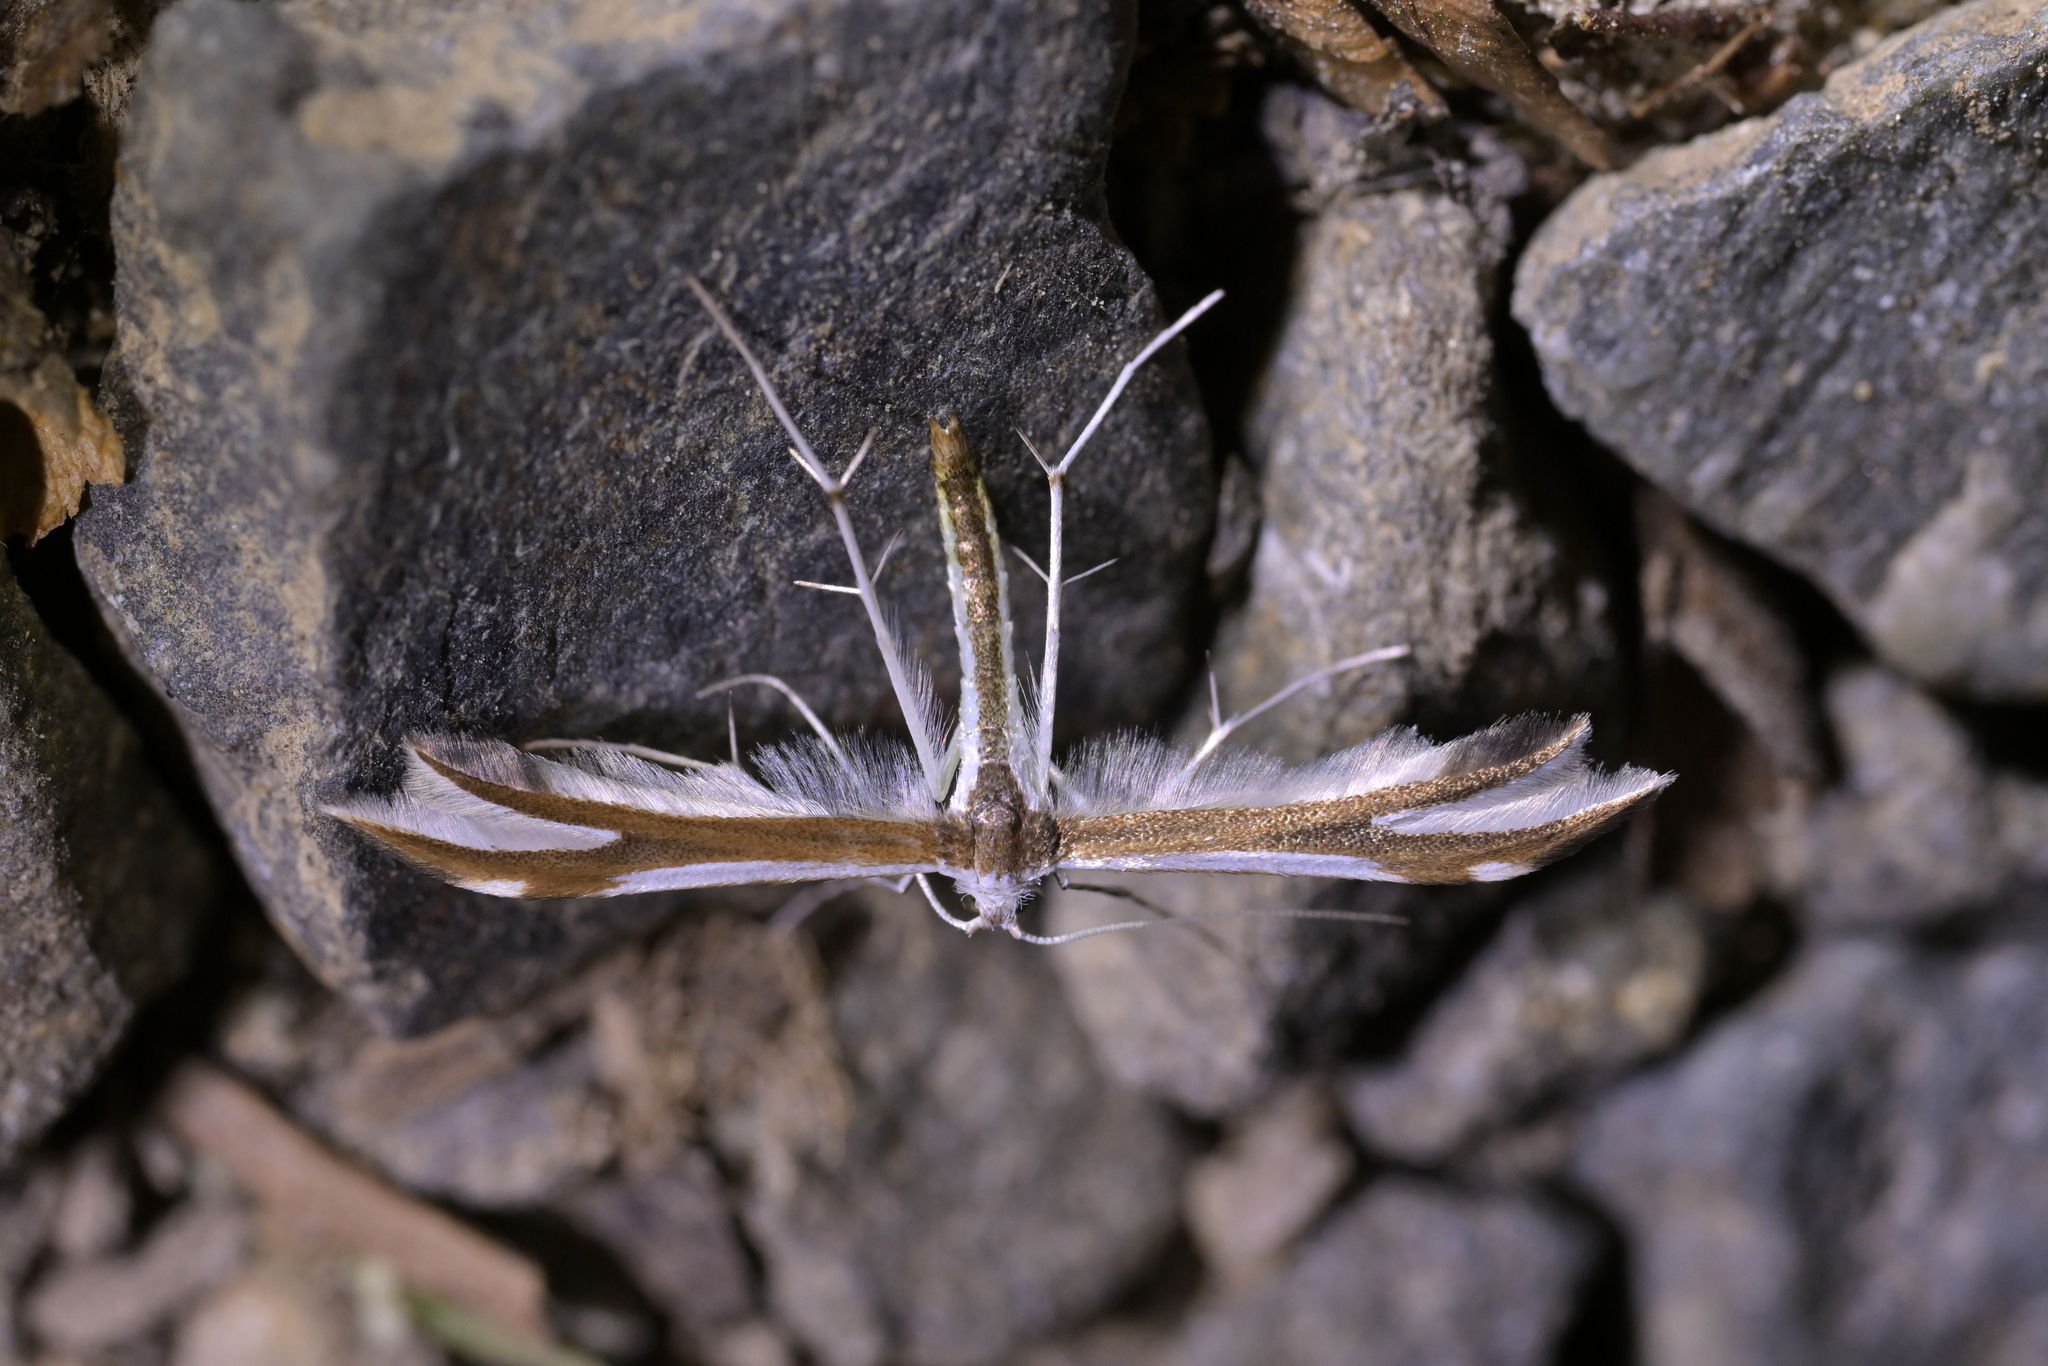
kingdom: Animalia
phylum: Arthropoda
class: Insecta
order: Lepidoptera
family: Pterophoridae
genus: Pterophorus
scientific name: Pterophorus furcatalis
